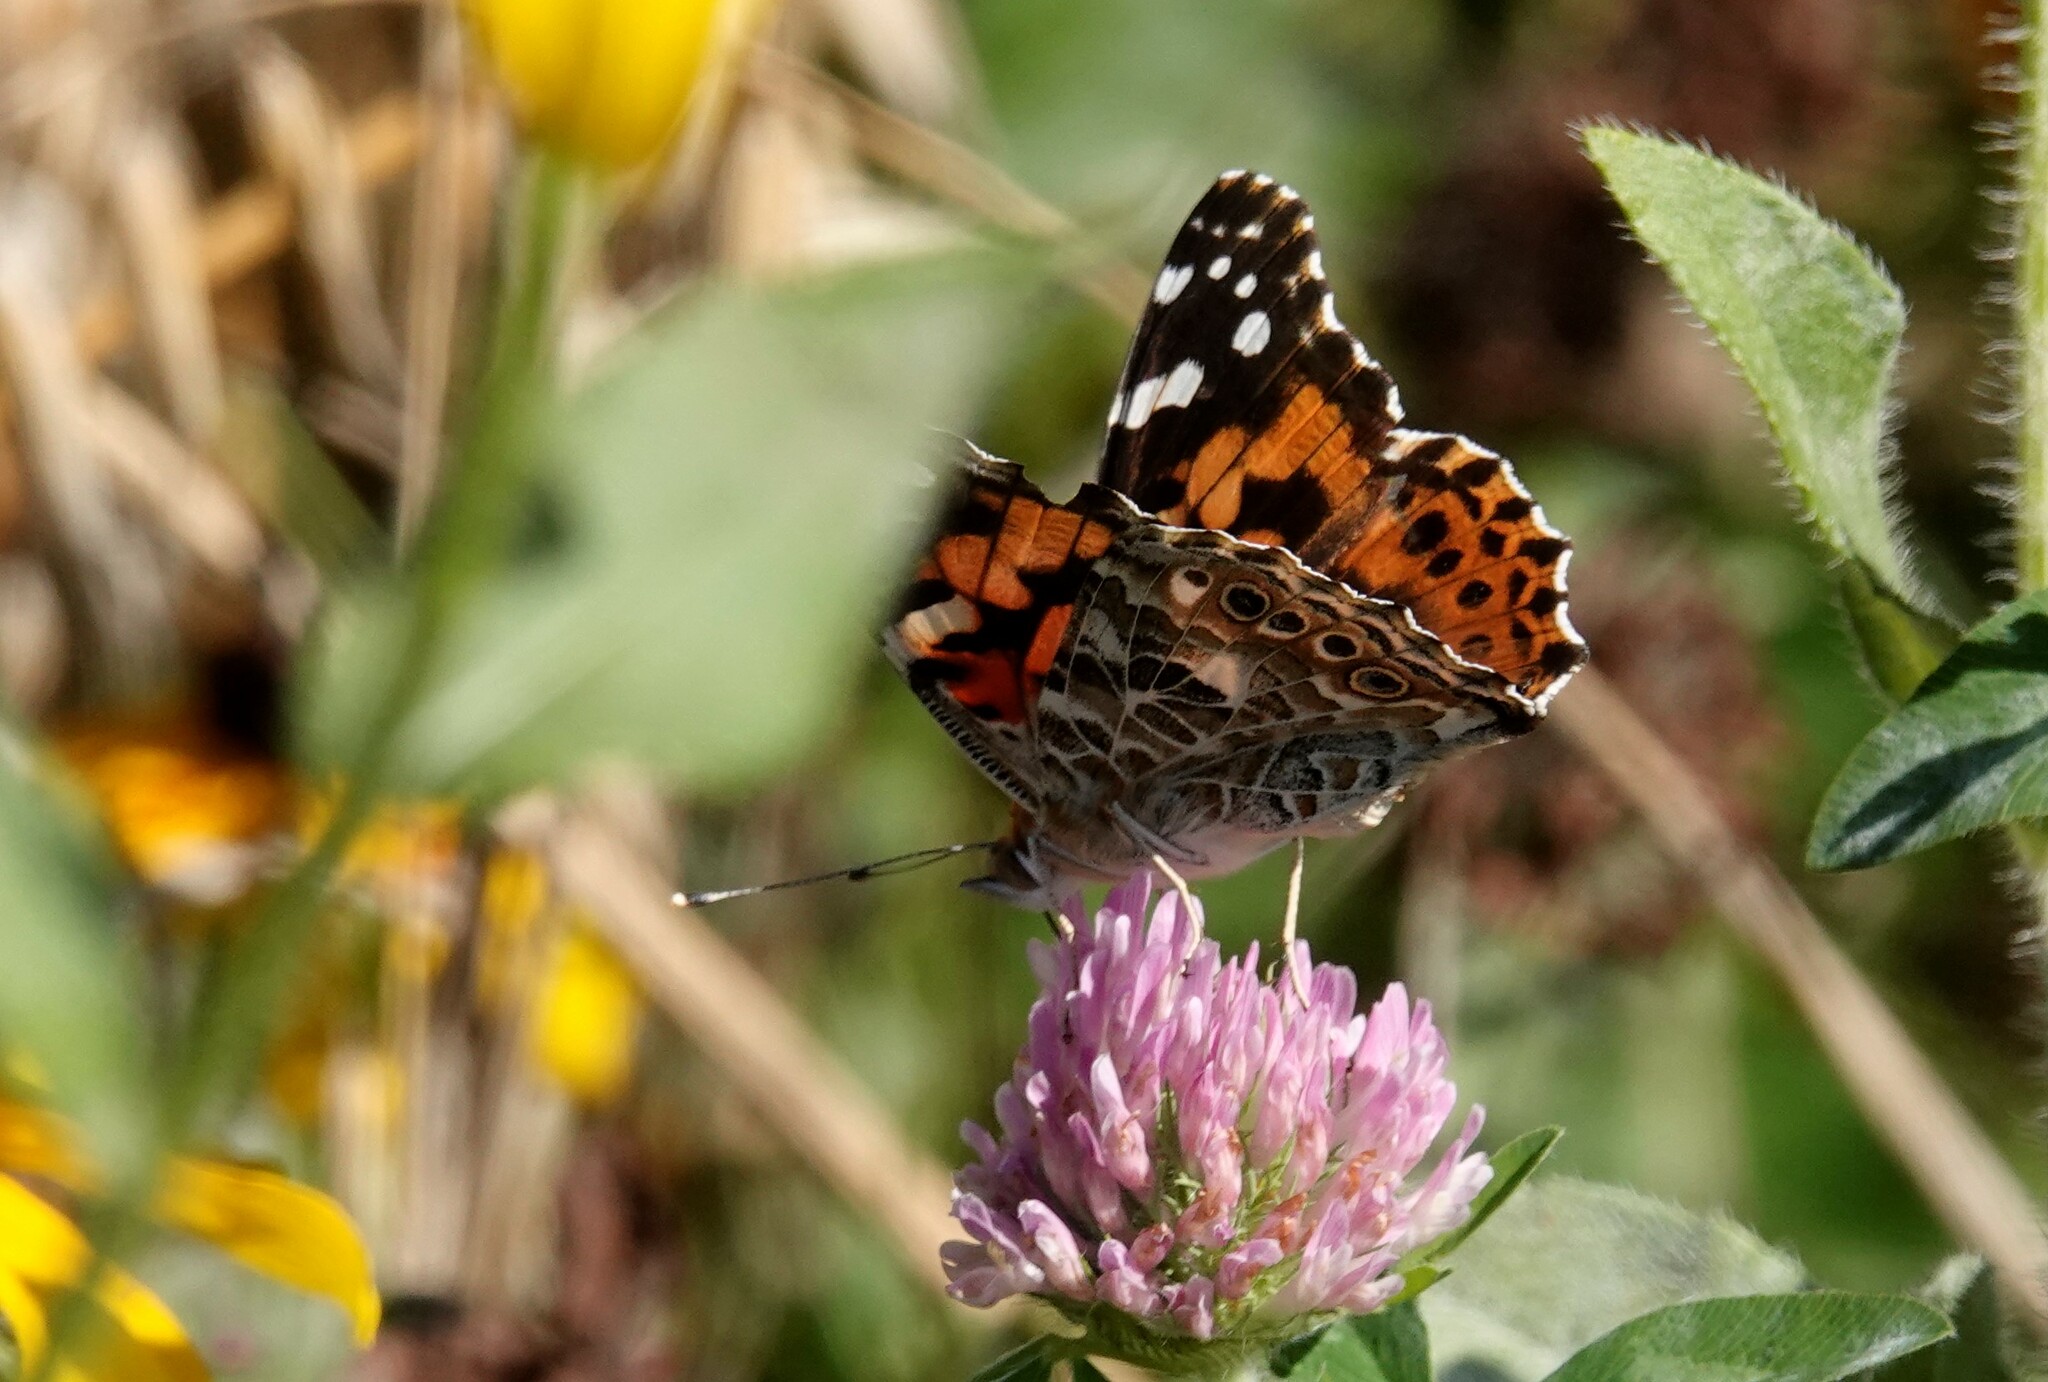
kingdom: Animalia
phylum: Arthropoda
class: Insecta
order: Lepidoptera
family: Nymphalidae
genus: Vanessa
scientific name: Vanessa cardui
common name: Painted lady
